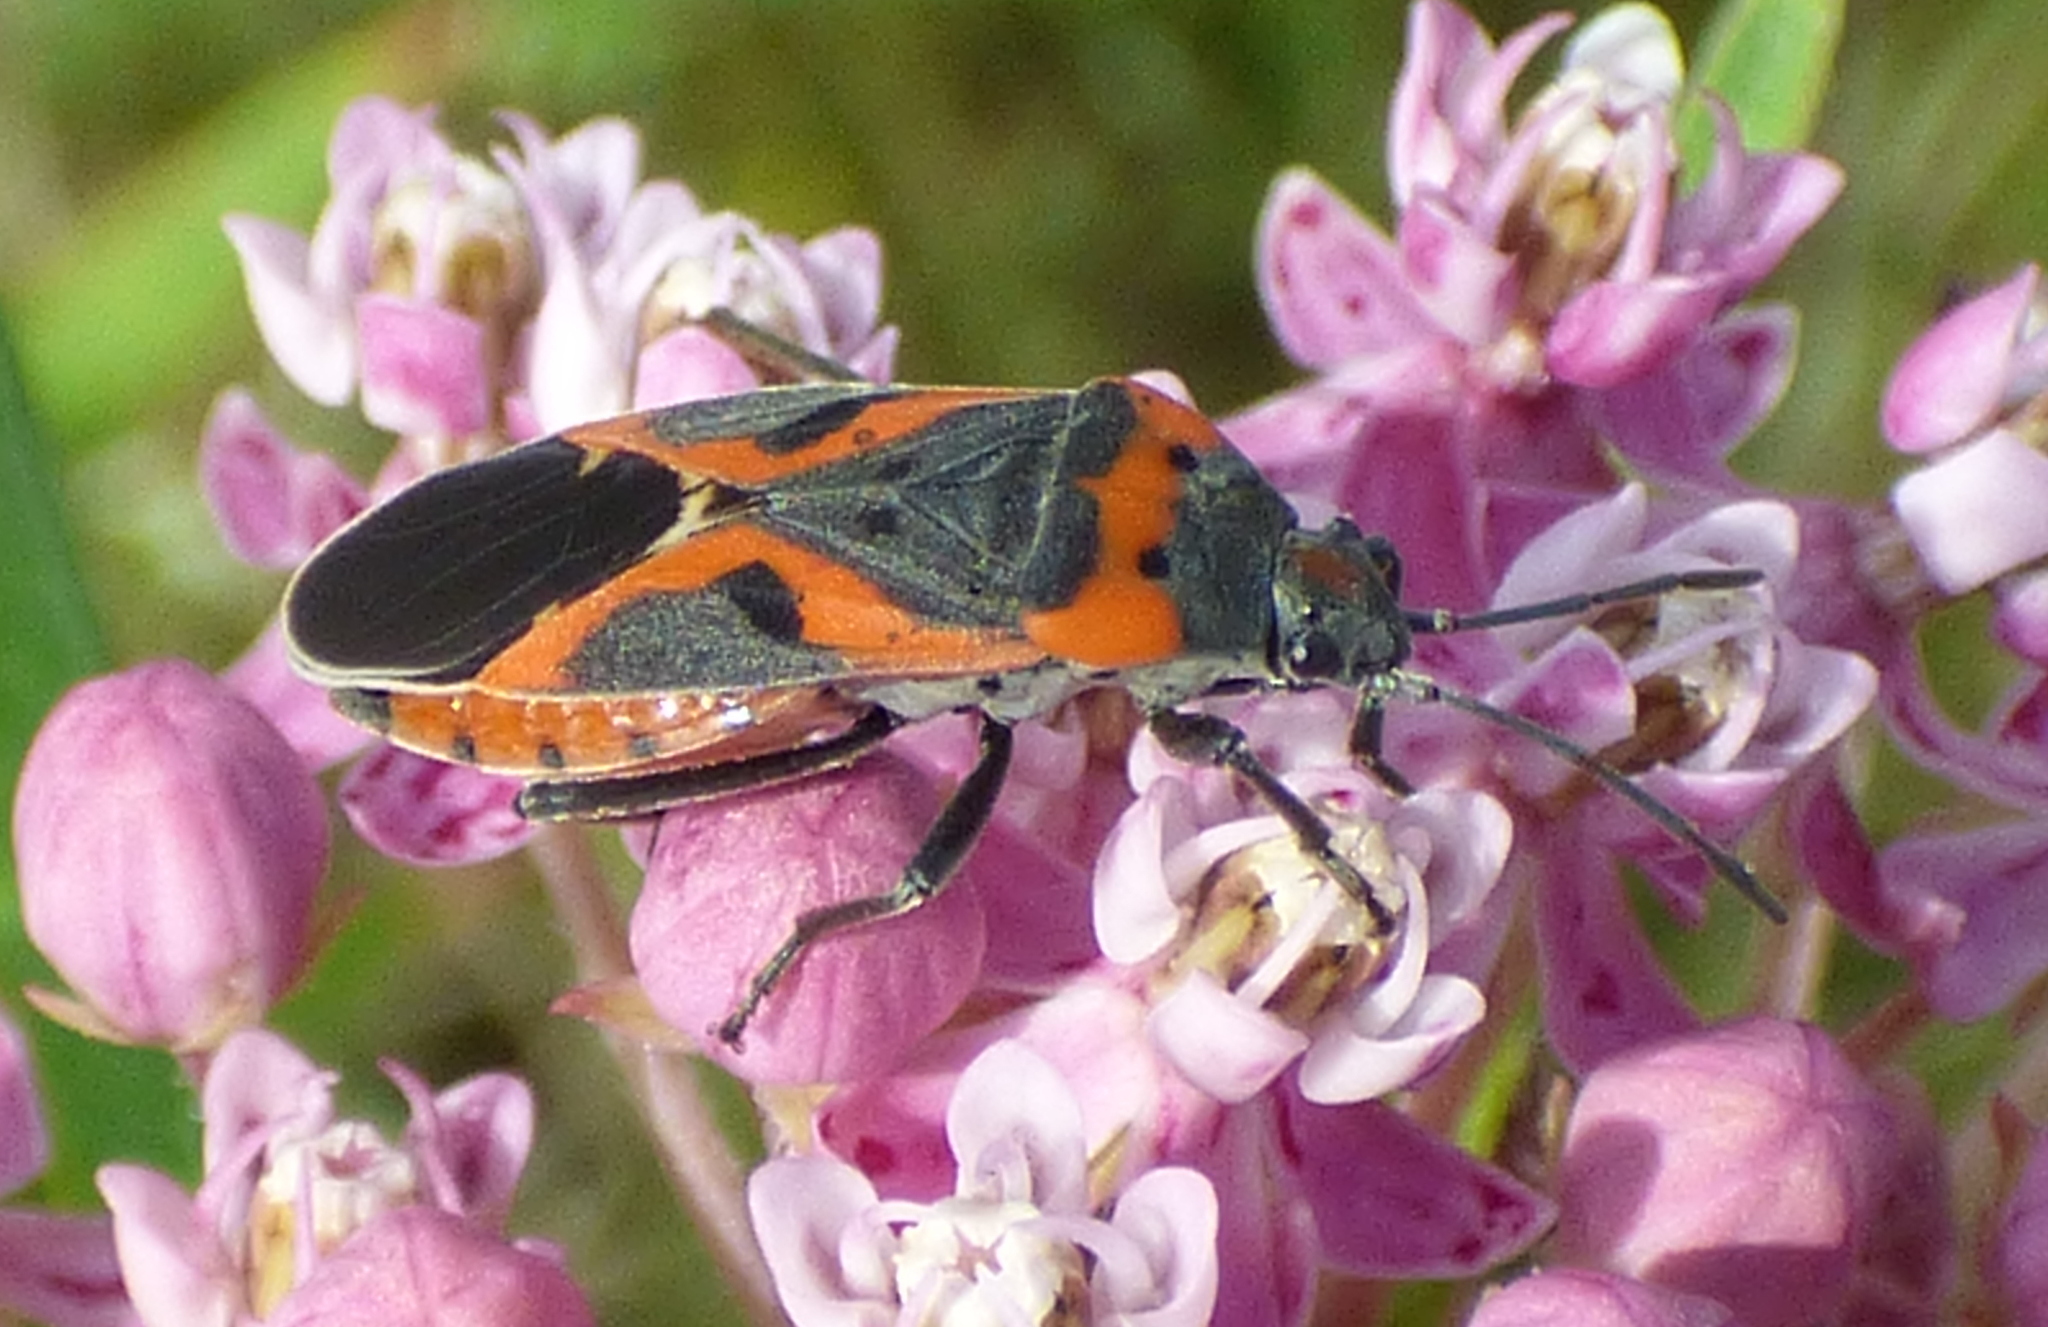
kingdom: Animalia
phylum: Arthropoda
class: Insecta
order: Hemiptera
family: Lygaeidae
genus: Lygaeus
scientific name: Lygaeus kalmii
